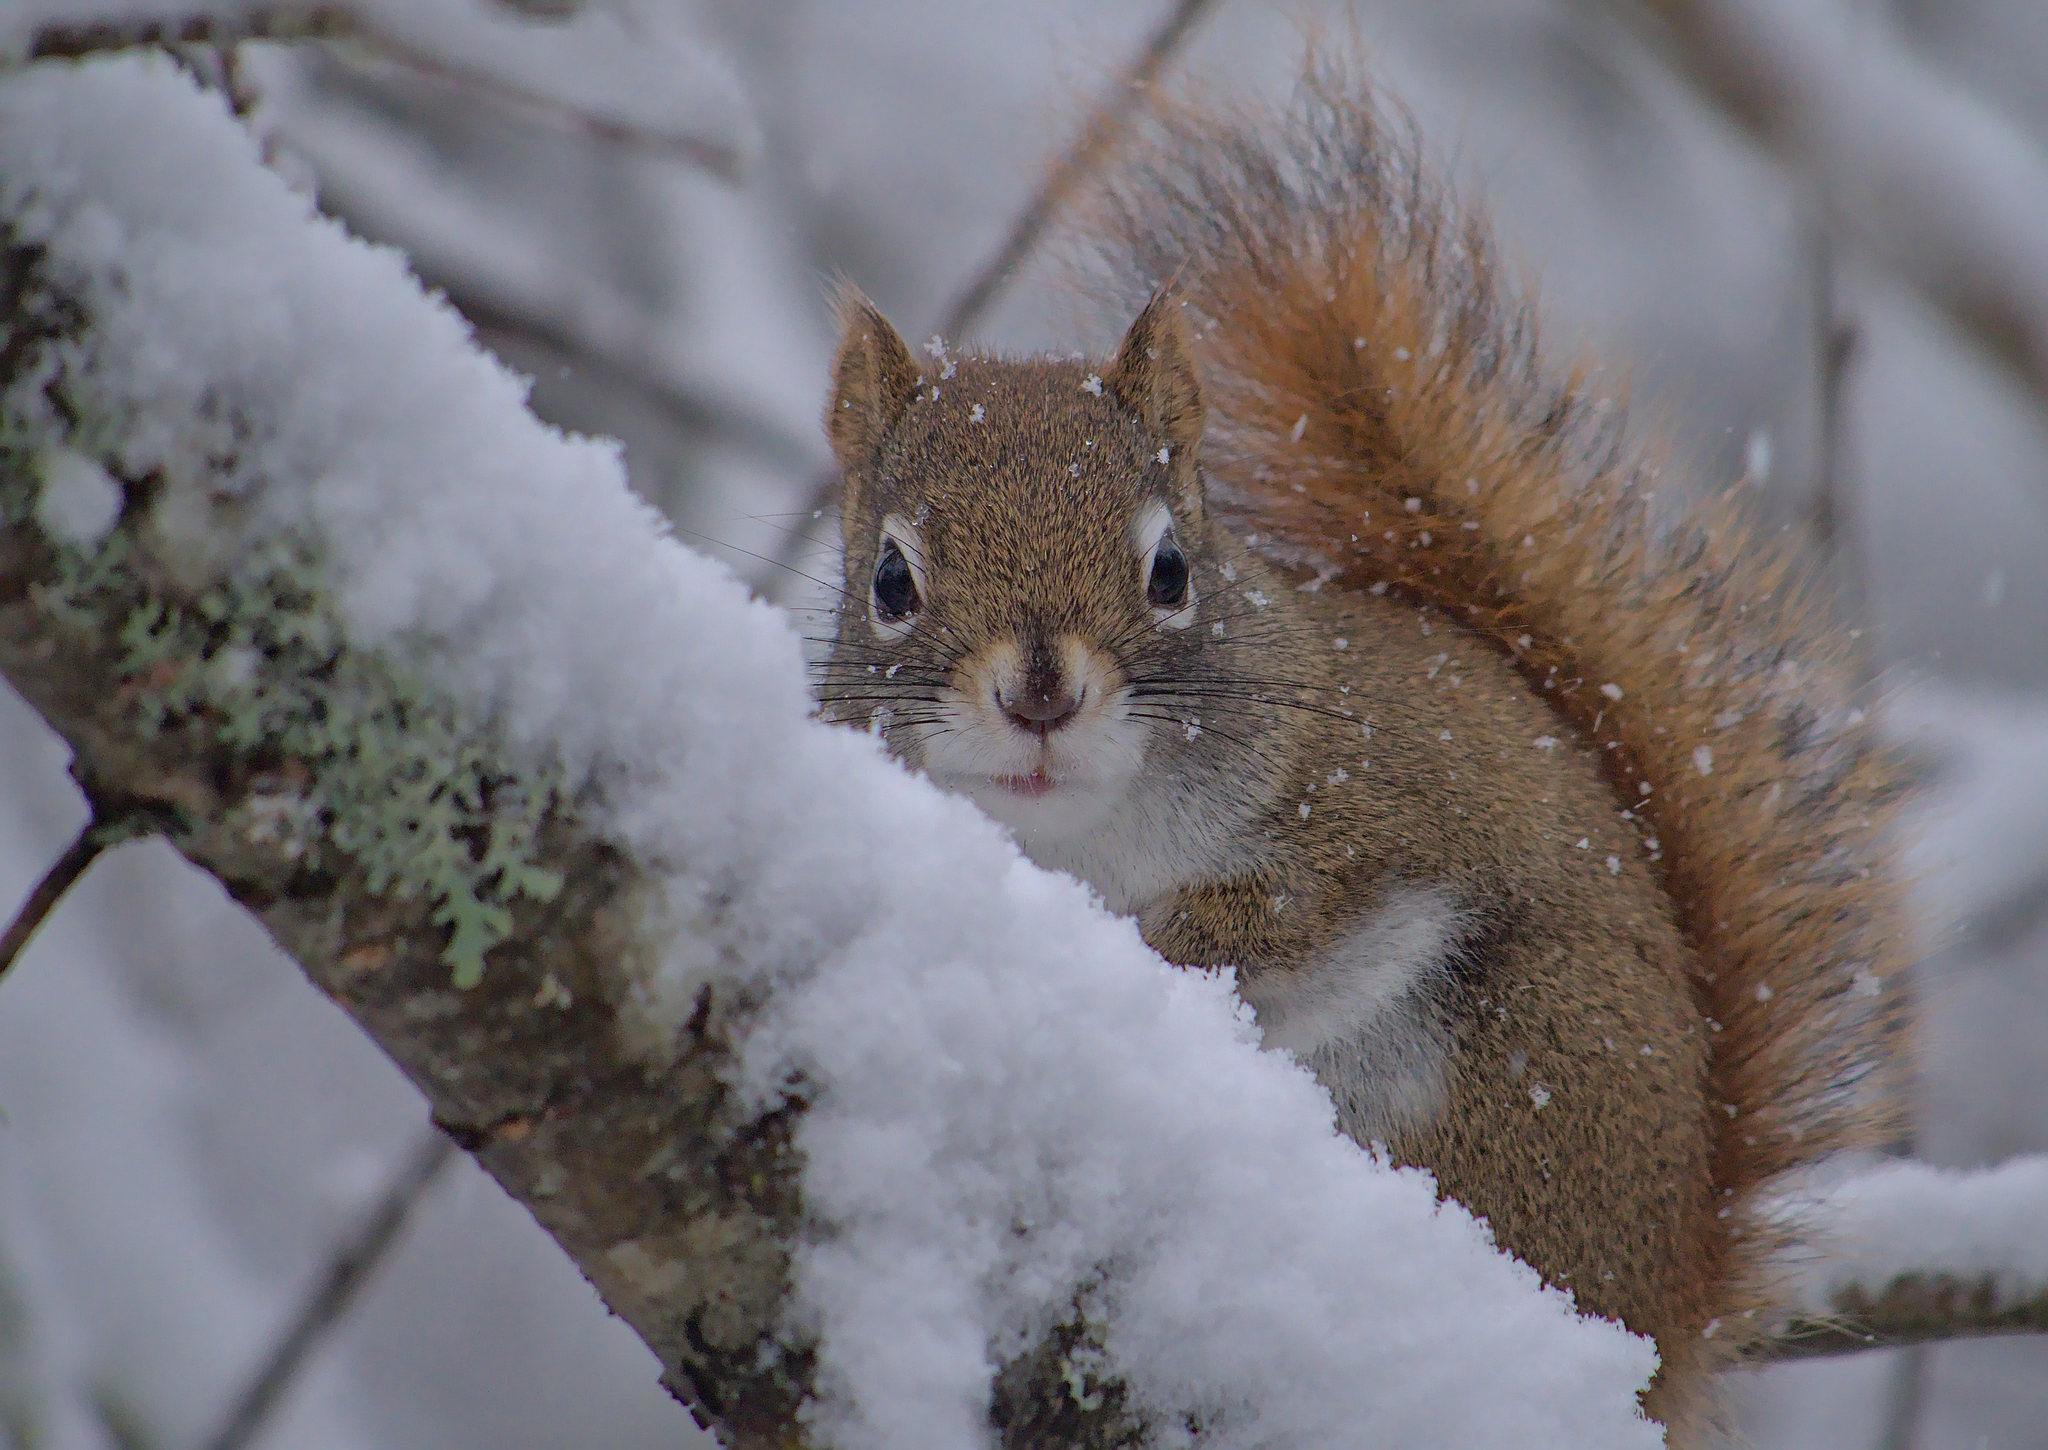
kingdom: Animalia
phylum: Chordata
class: Mammalia
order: Rodentia
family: Sciuridae
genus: Tamiasciurus
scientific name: Tamiasciurus hudsonicus
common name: Red squirrel
